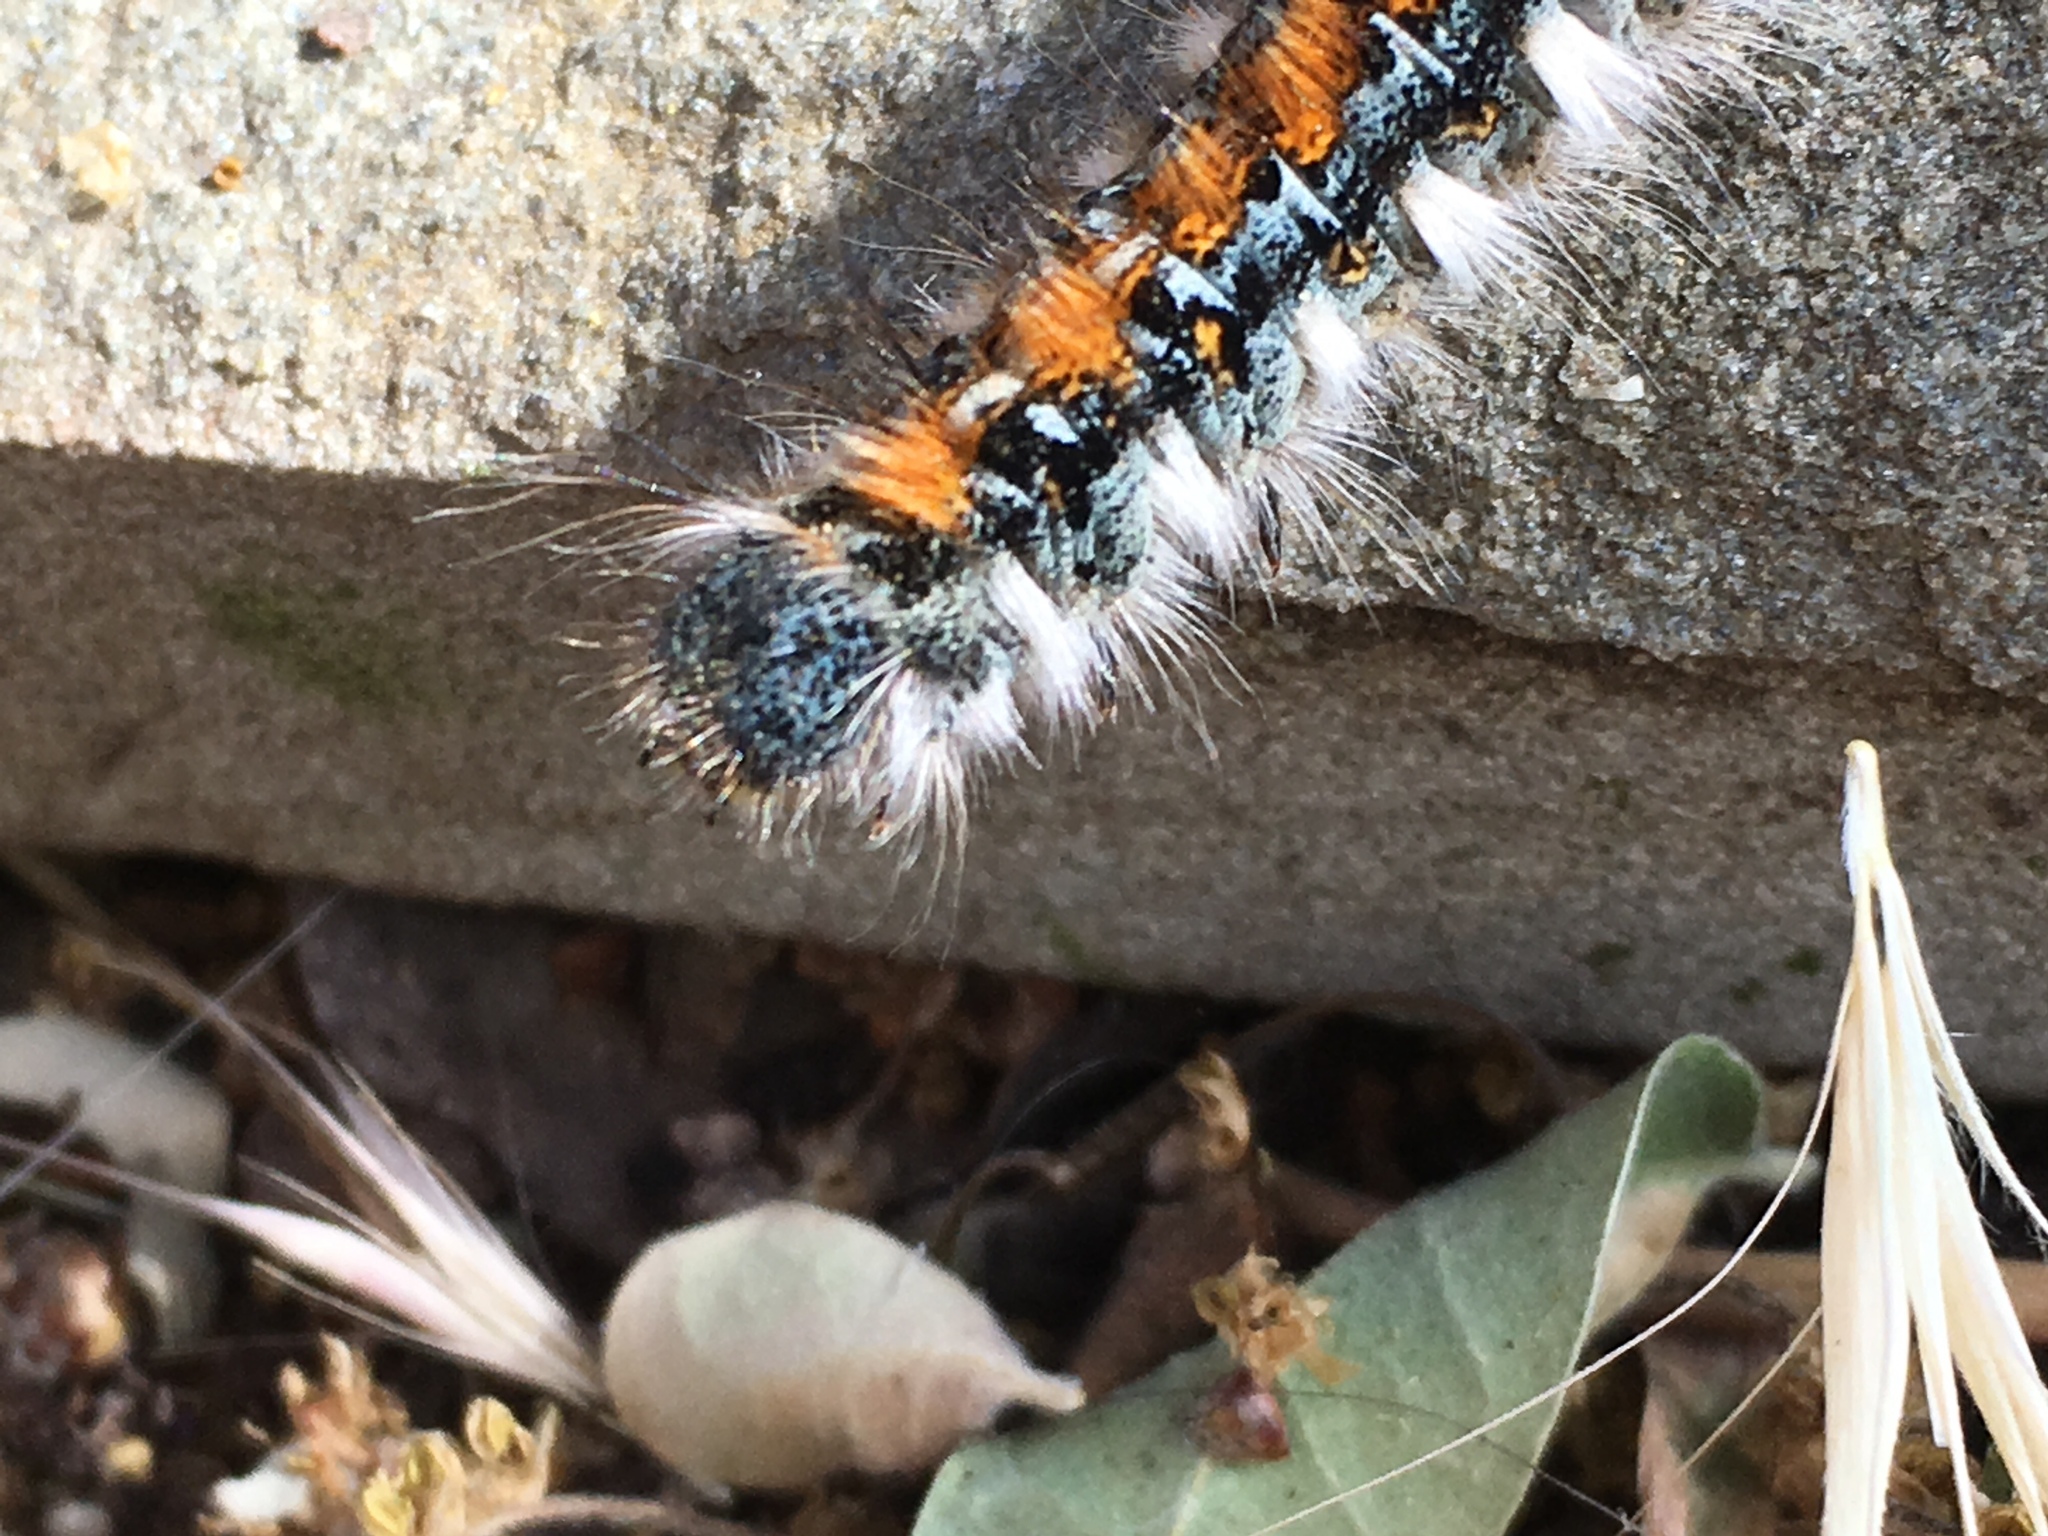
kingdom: Animalia
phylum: Arthropoda
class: Insecta
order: Lepidoptera
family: Lasiocampidae
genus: Malacosoma
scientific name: Malacosoma constricta
